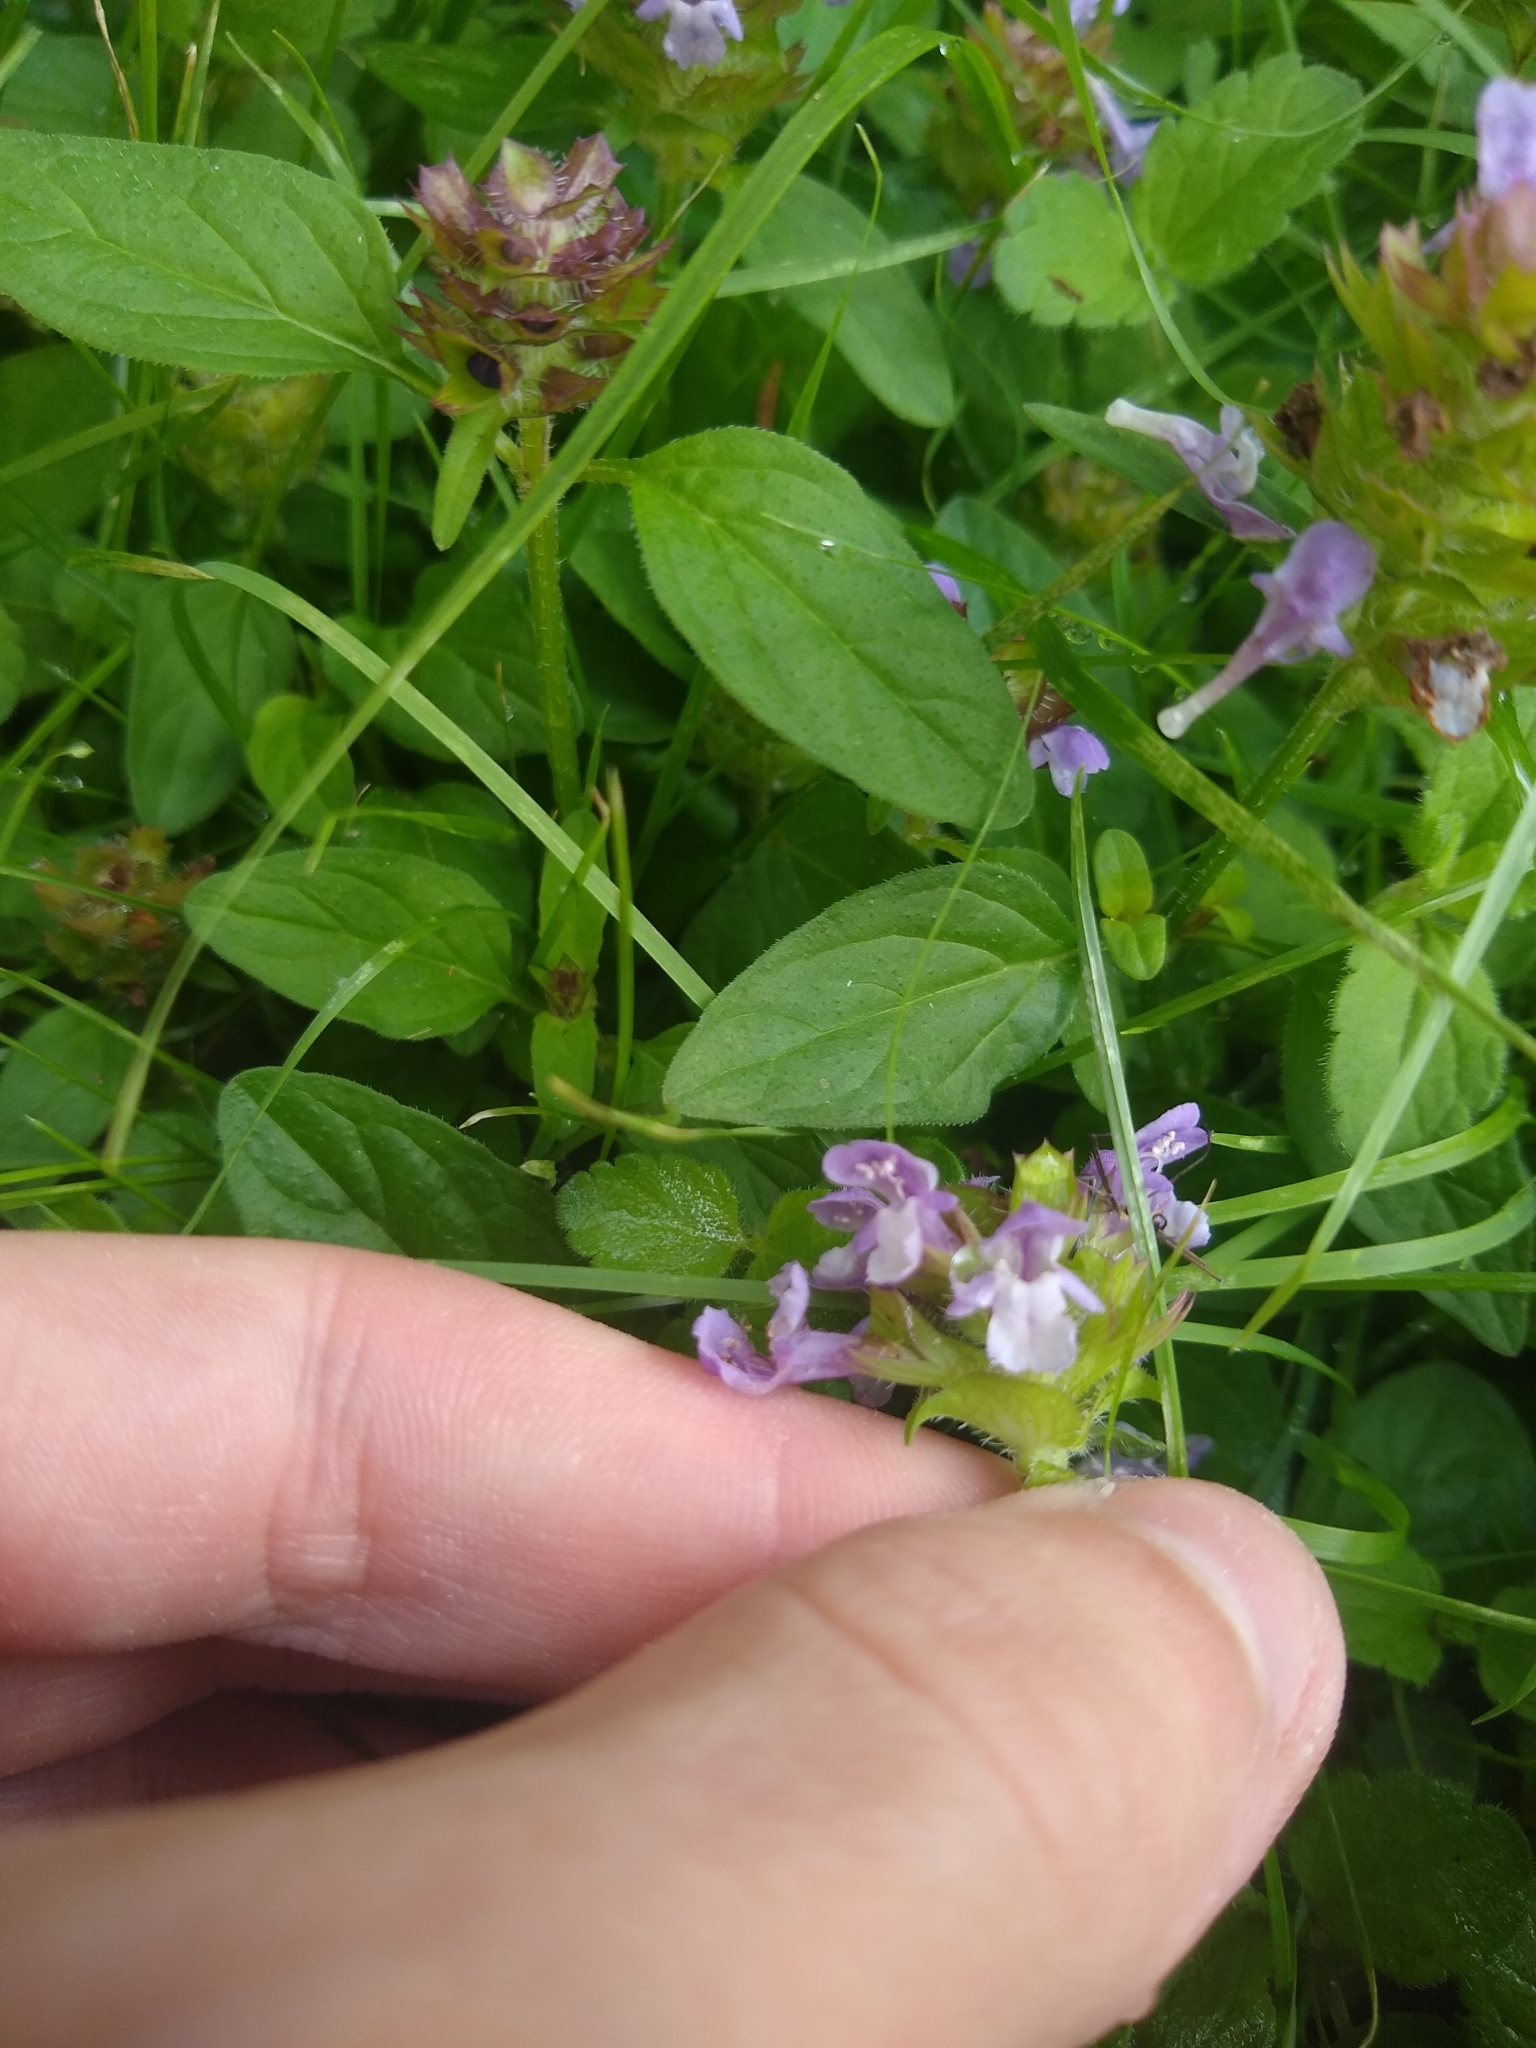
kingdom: Plantae
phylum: Tracheophyta
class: Magnoliopsida
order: Lamiales
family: Lamiaceae
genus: Prunella
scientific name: Prunella vulgaris
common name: Heal-all
